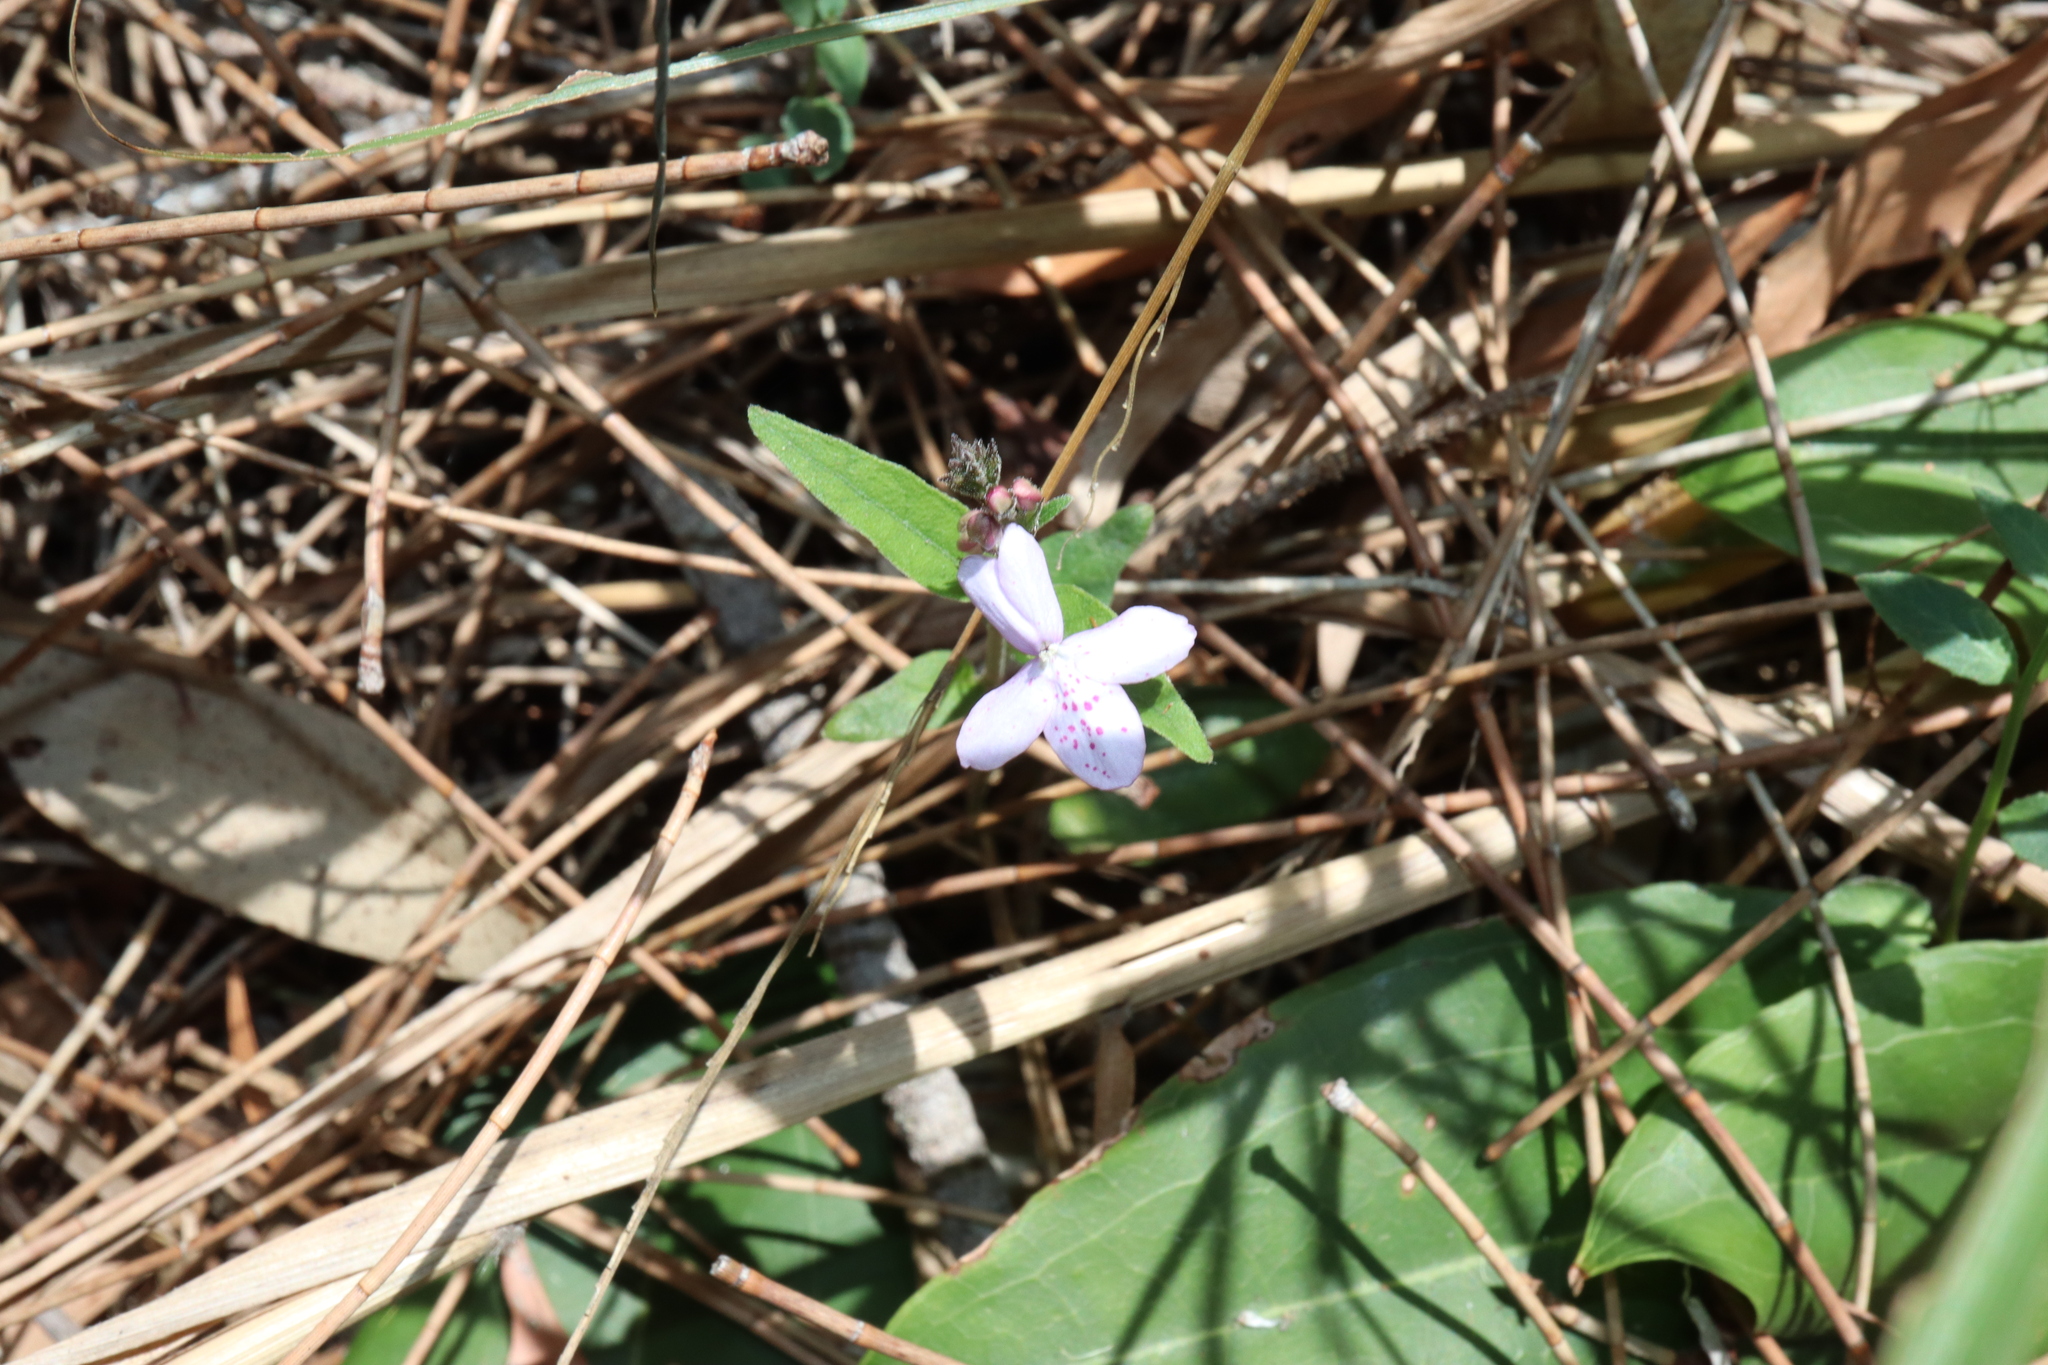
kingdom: Plantae
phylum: Tracheophyta
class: Magnoliopsida
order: Lamiales
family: Acanthaceae
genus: Pseuderanthemum
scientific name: Pseuderanthemum variabile
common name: Night and afternoon
